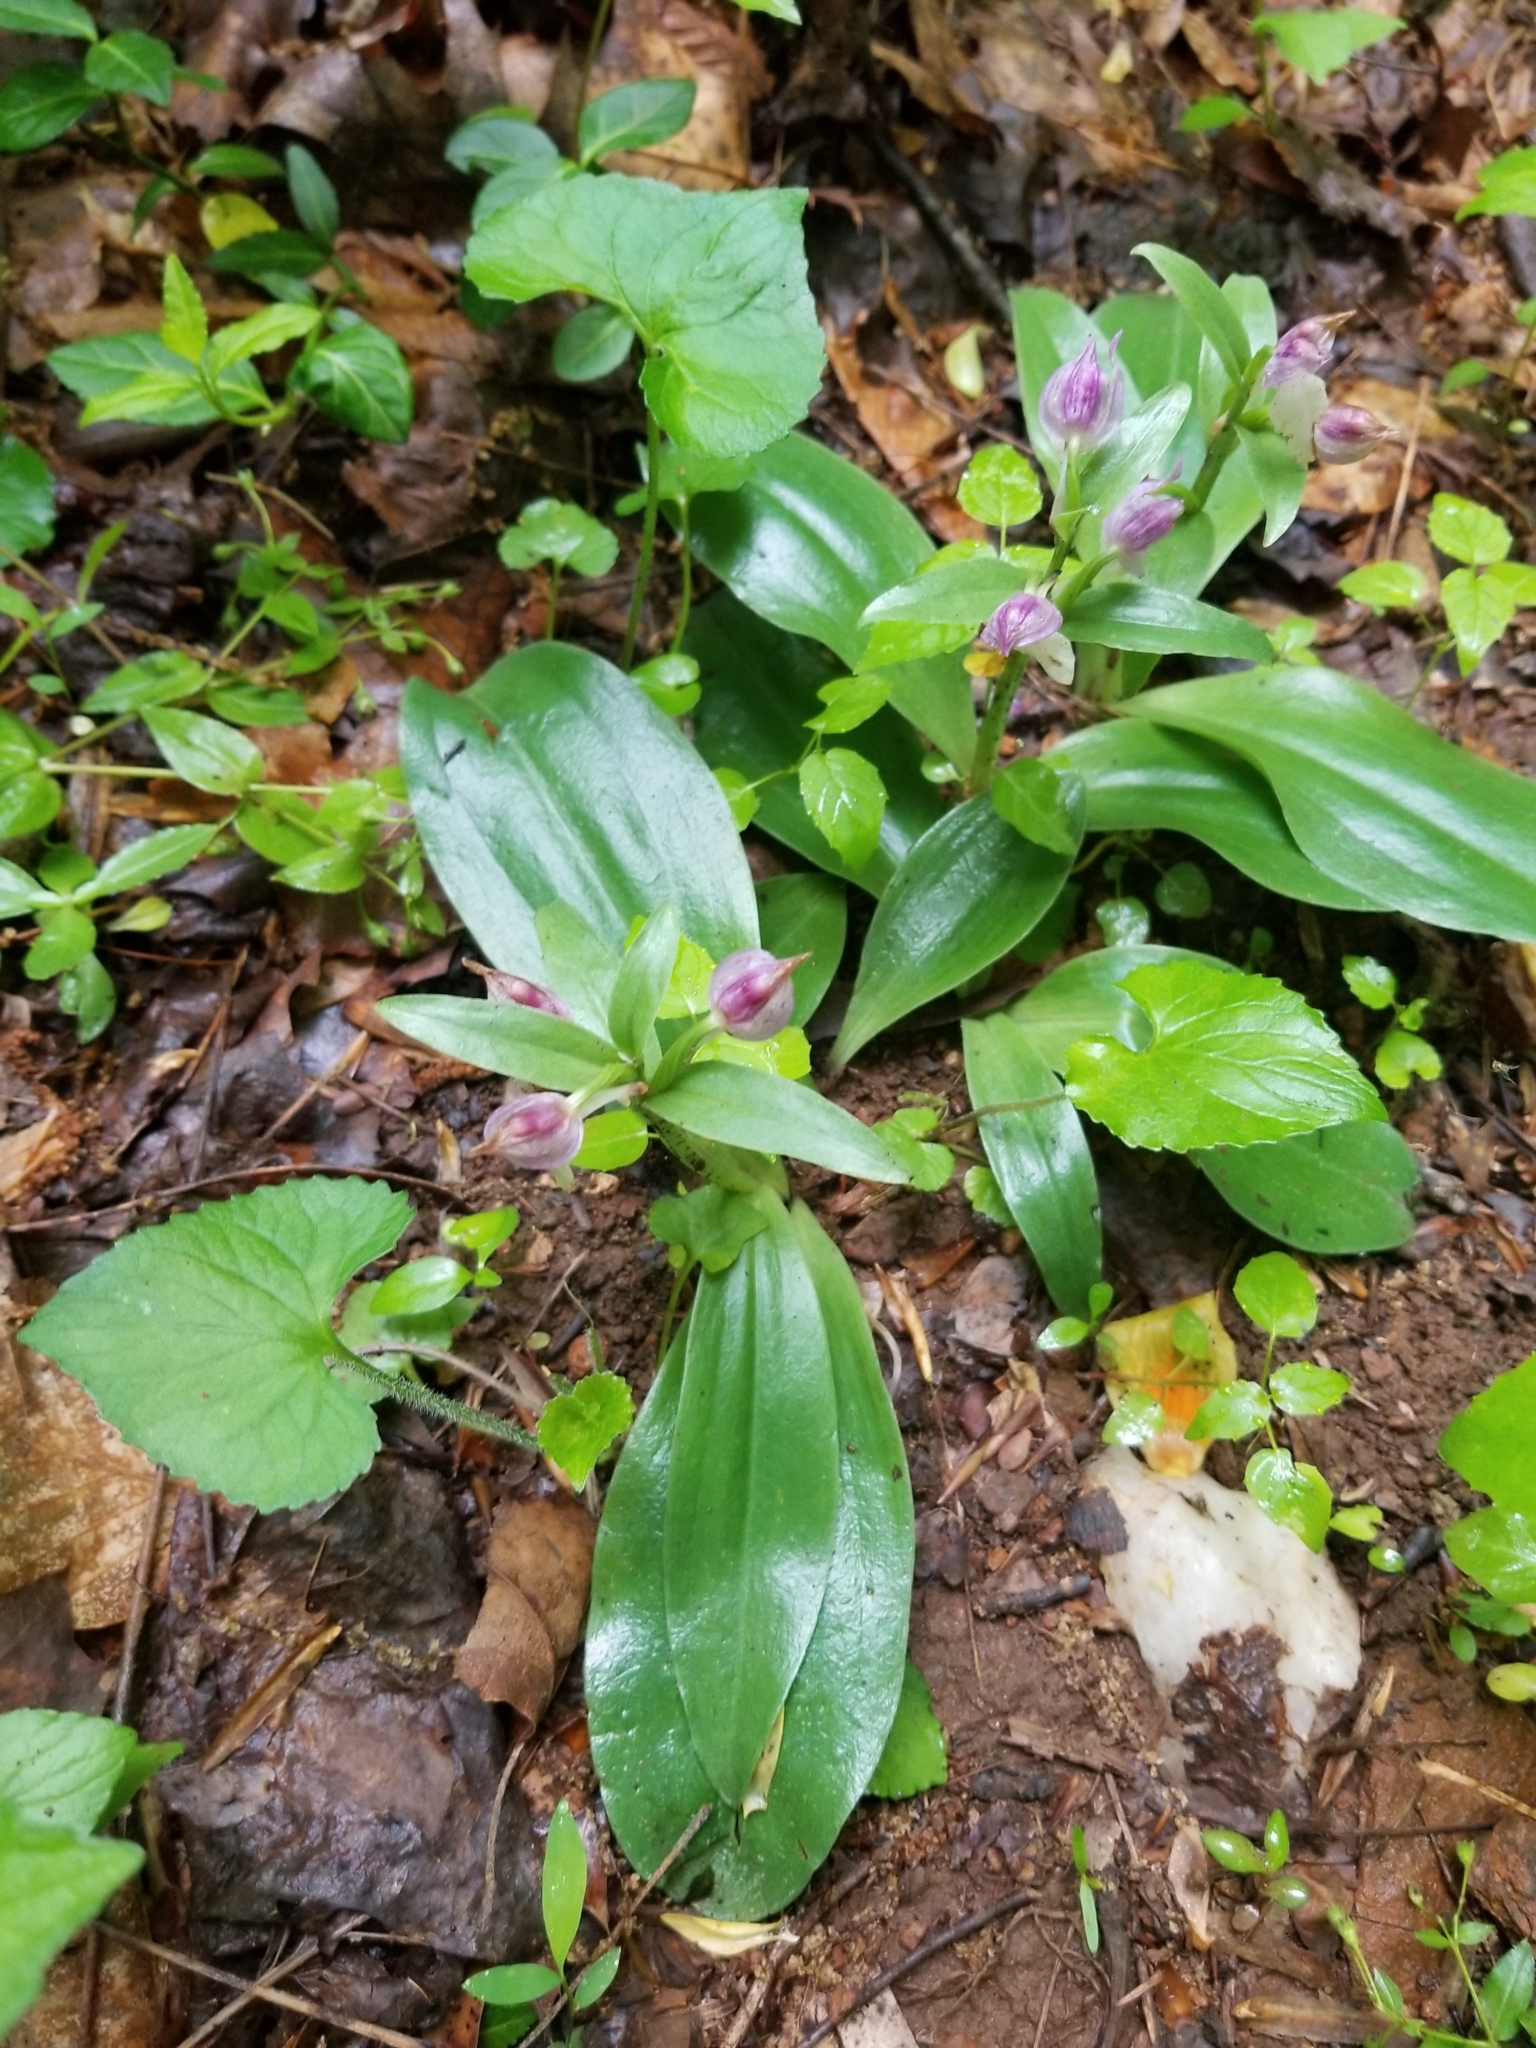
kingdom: Plantae
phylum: Tracheophyta
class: Liliopsida
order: Asparagales
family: Orchidaceae
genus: Galearis
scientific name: Galearis spectabilis
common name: Purple-hooded orchis
